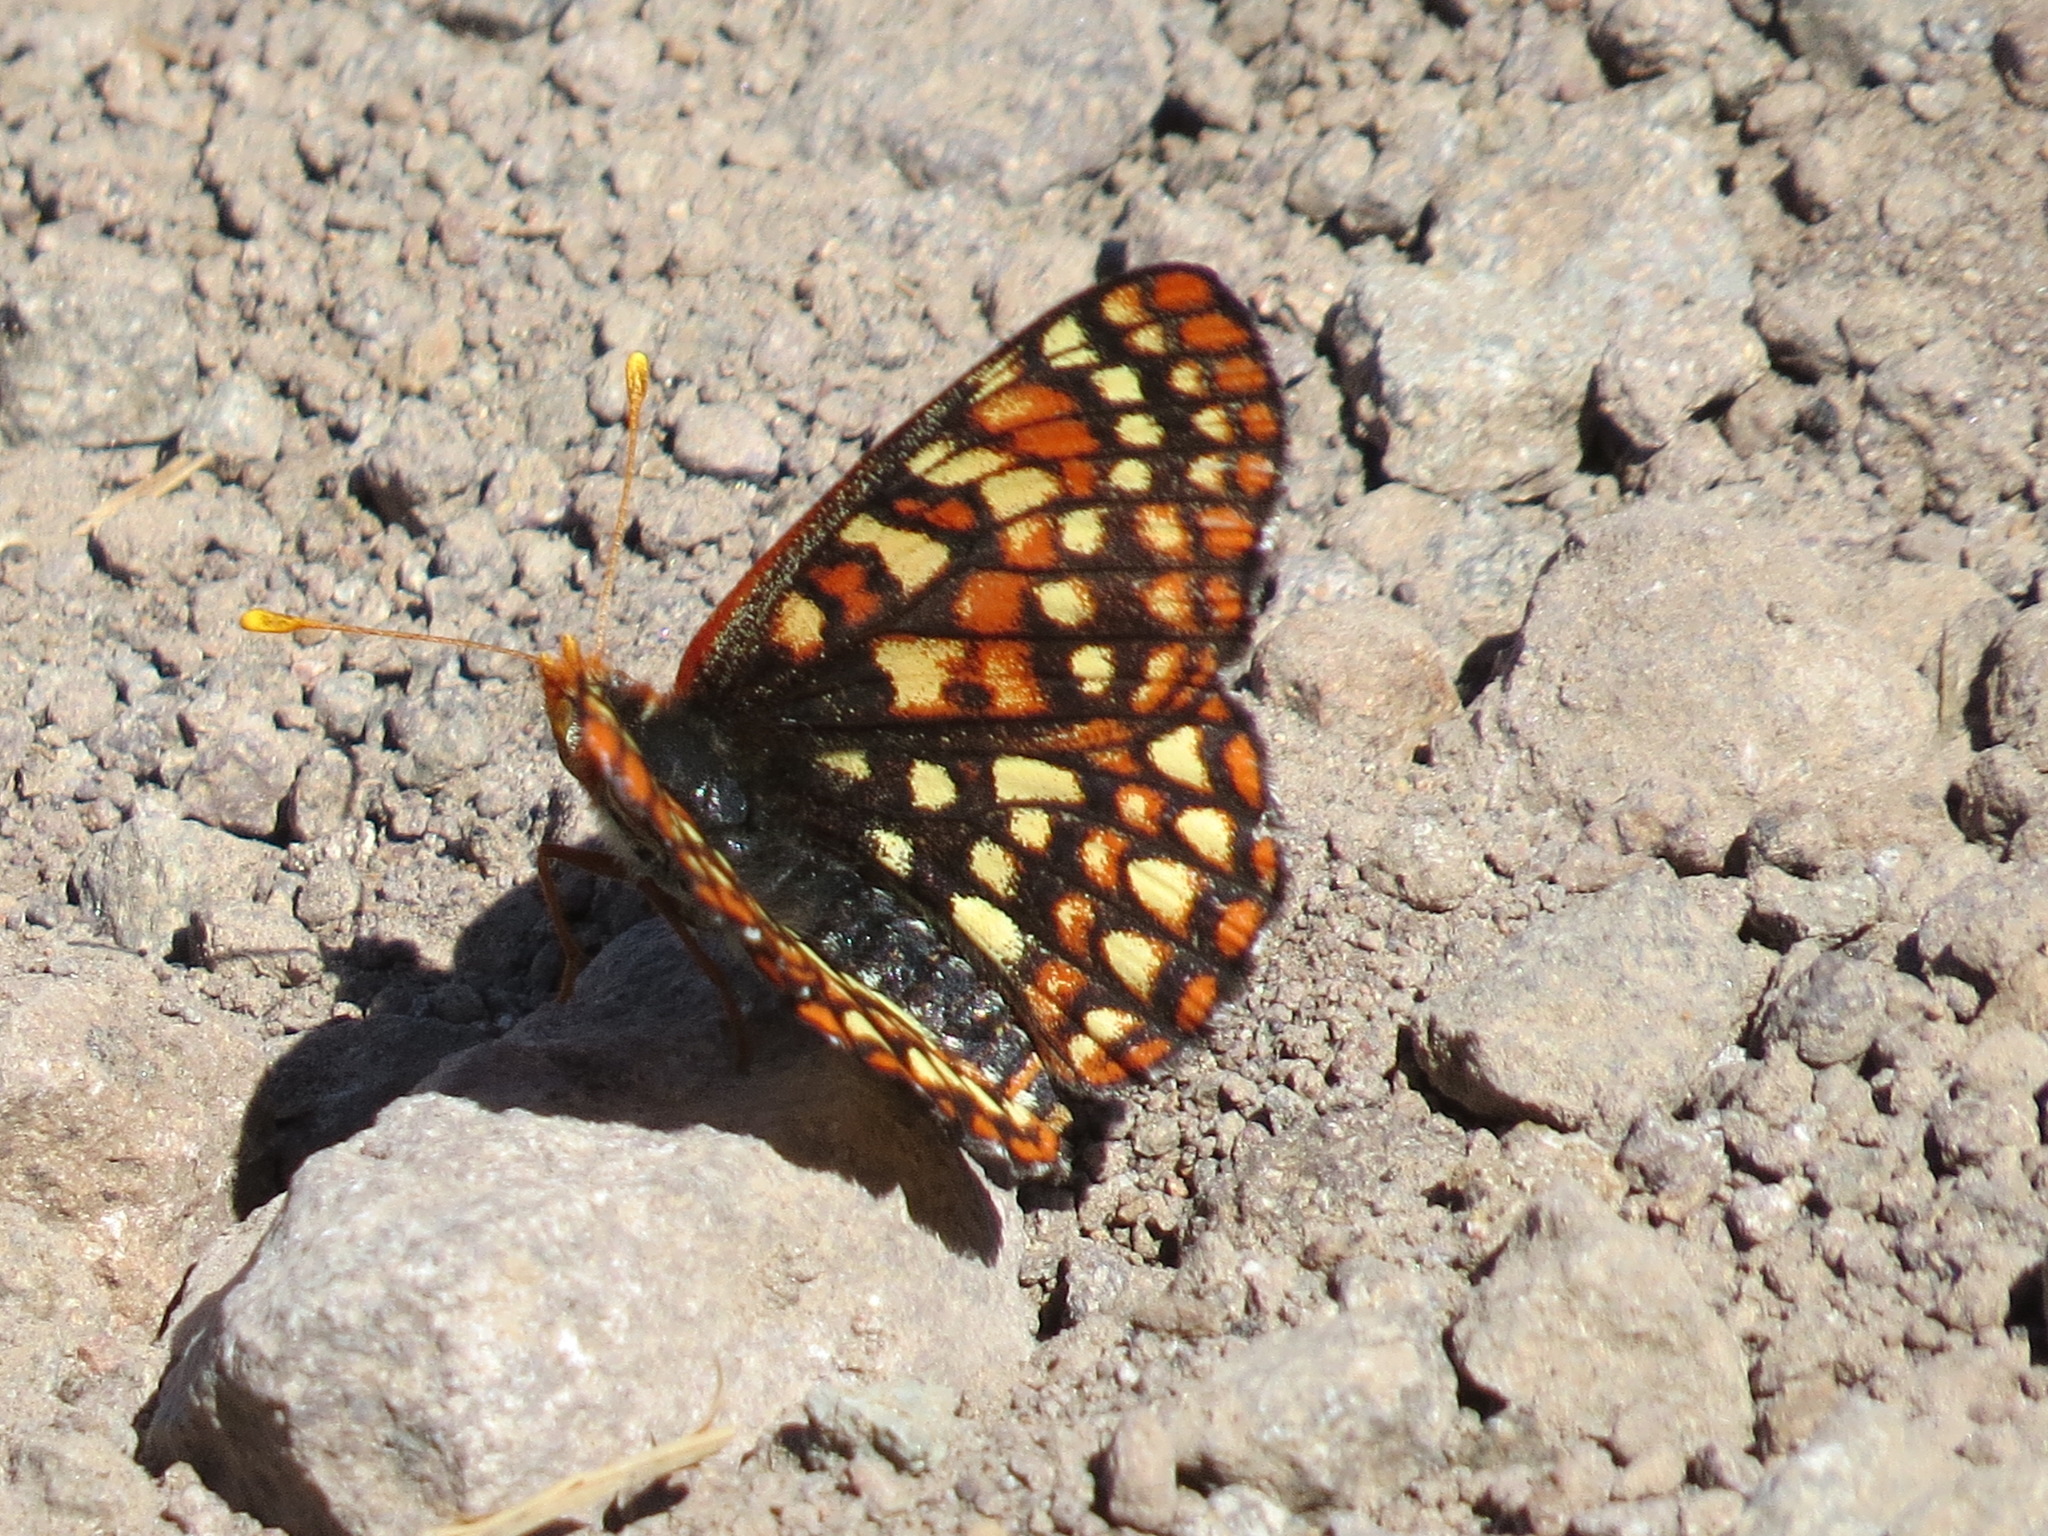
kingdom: Animalia
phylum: Arthropoda
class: Insecta
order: Lepidoptera
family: Nymphalidae
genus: Occidryas
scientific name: Occidryas chalcedona
